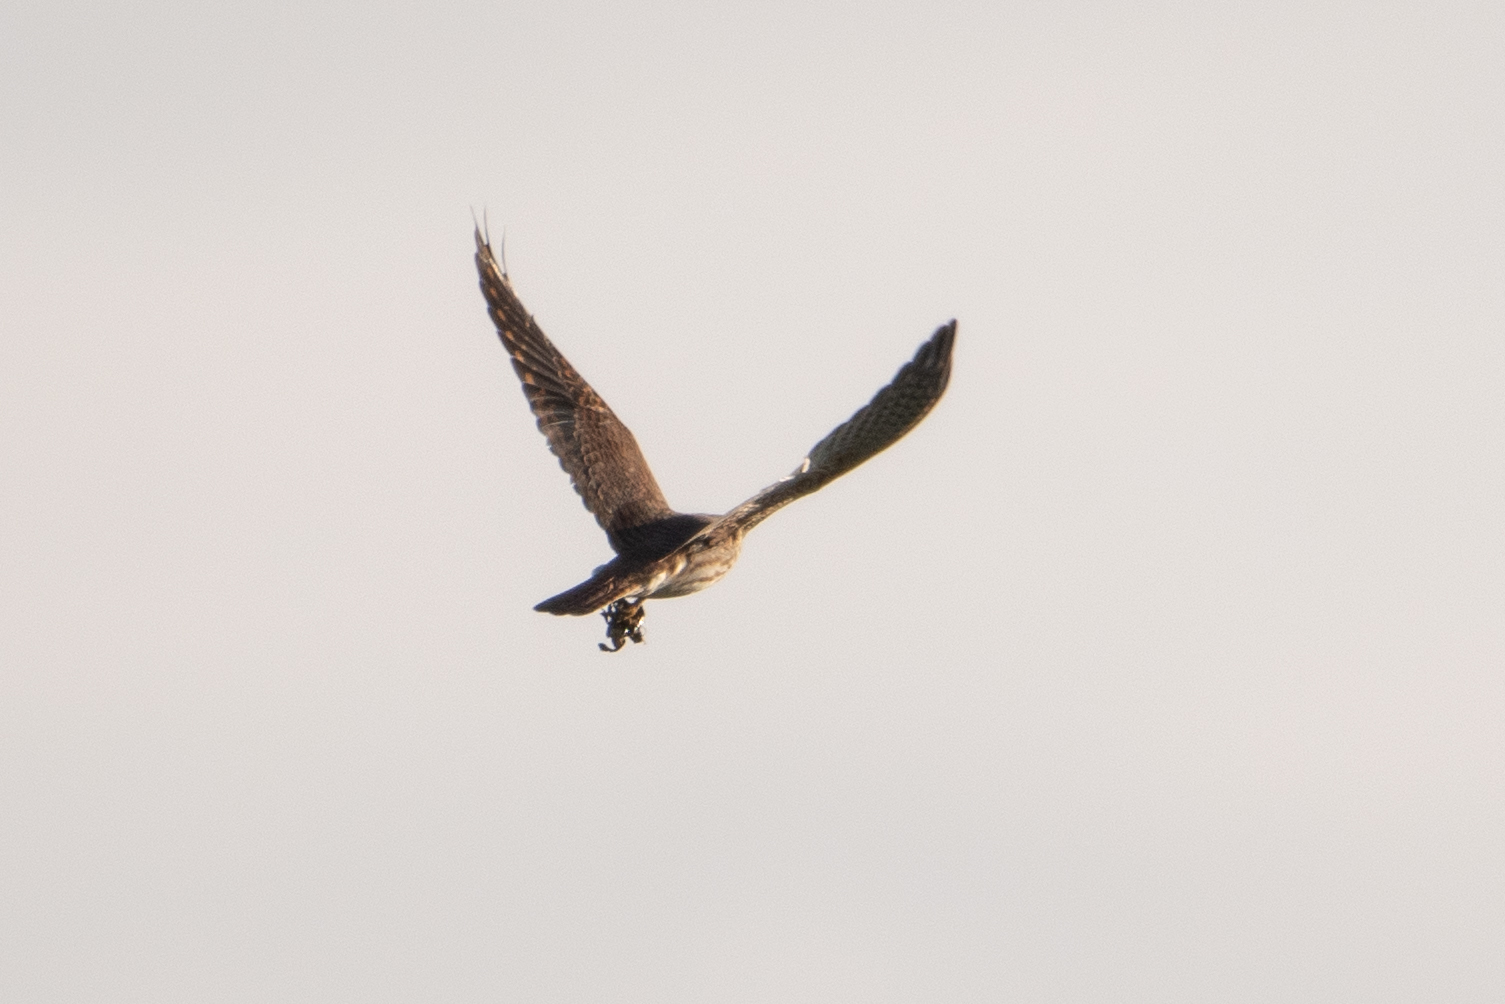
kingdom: Animalia
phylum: Chordata
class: Aves
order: Falconiformes
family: Falconidae
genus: Falco
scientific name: Falco sparverius
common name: American kestrel
